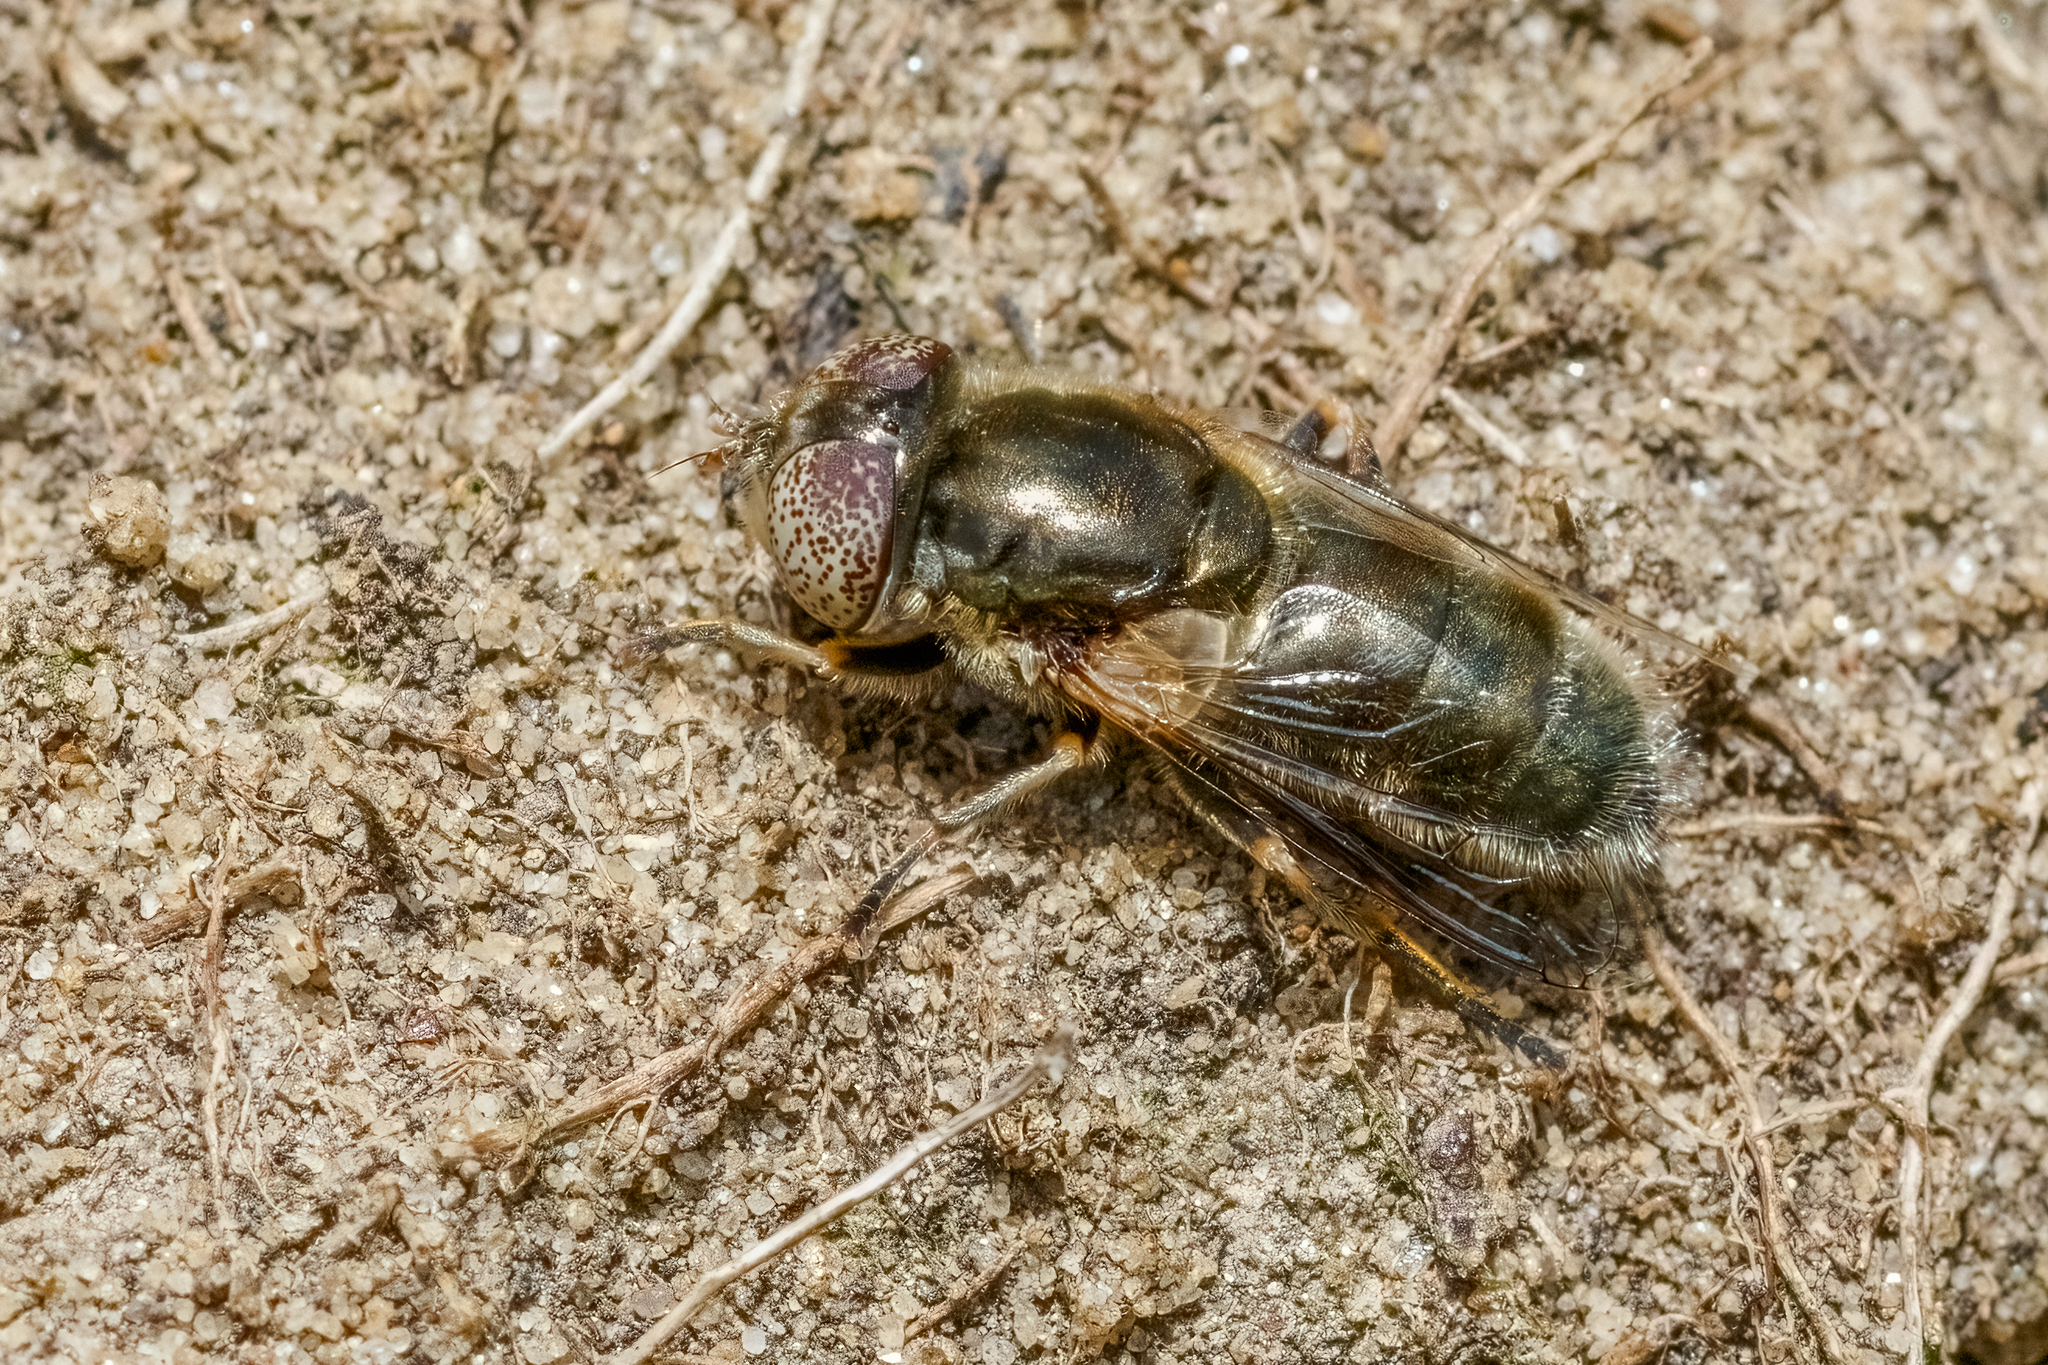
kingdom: Animalia
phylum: Arthropoda
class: Insecta
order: Diptera
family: Syrphidae
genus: Eristalinus
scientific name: Eristalinus aeneus
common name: Syrphid fly
